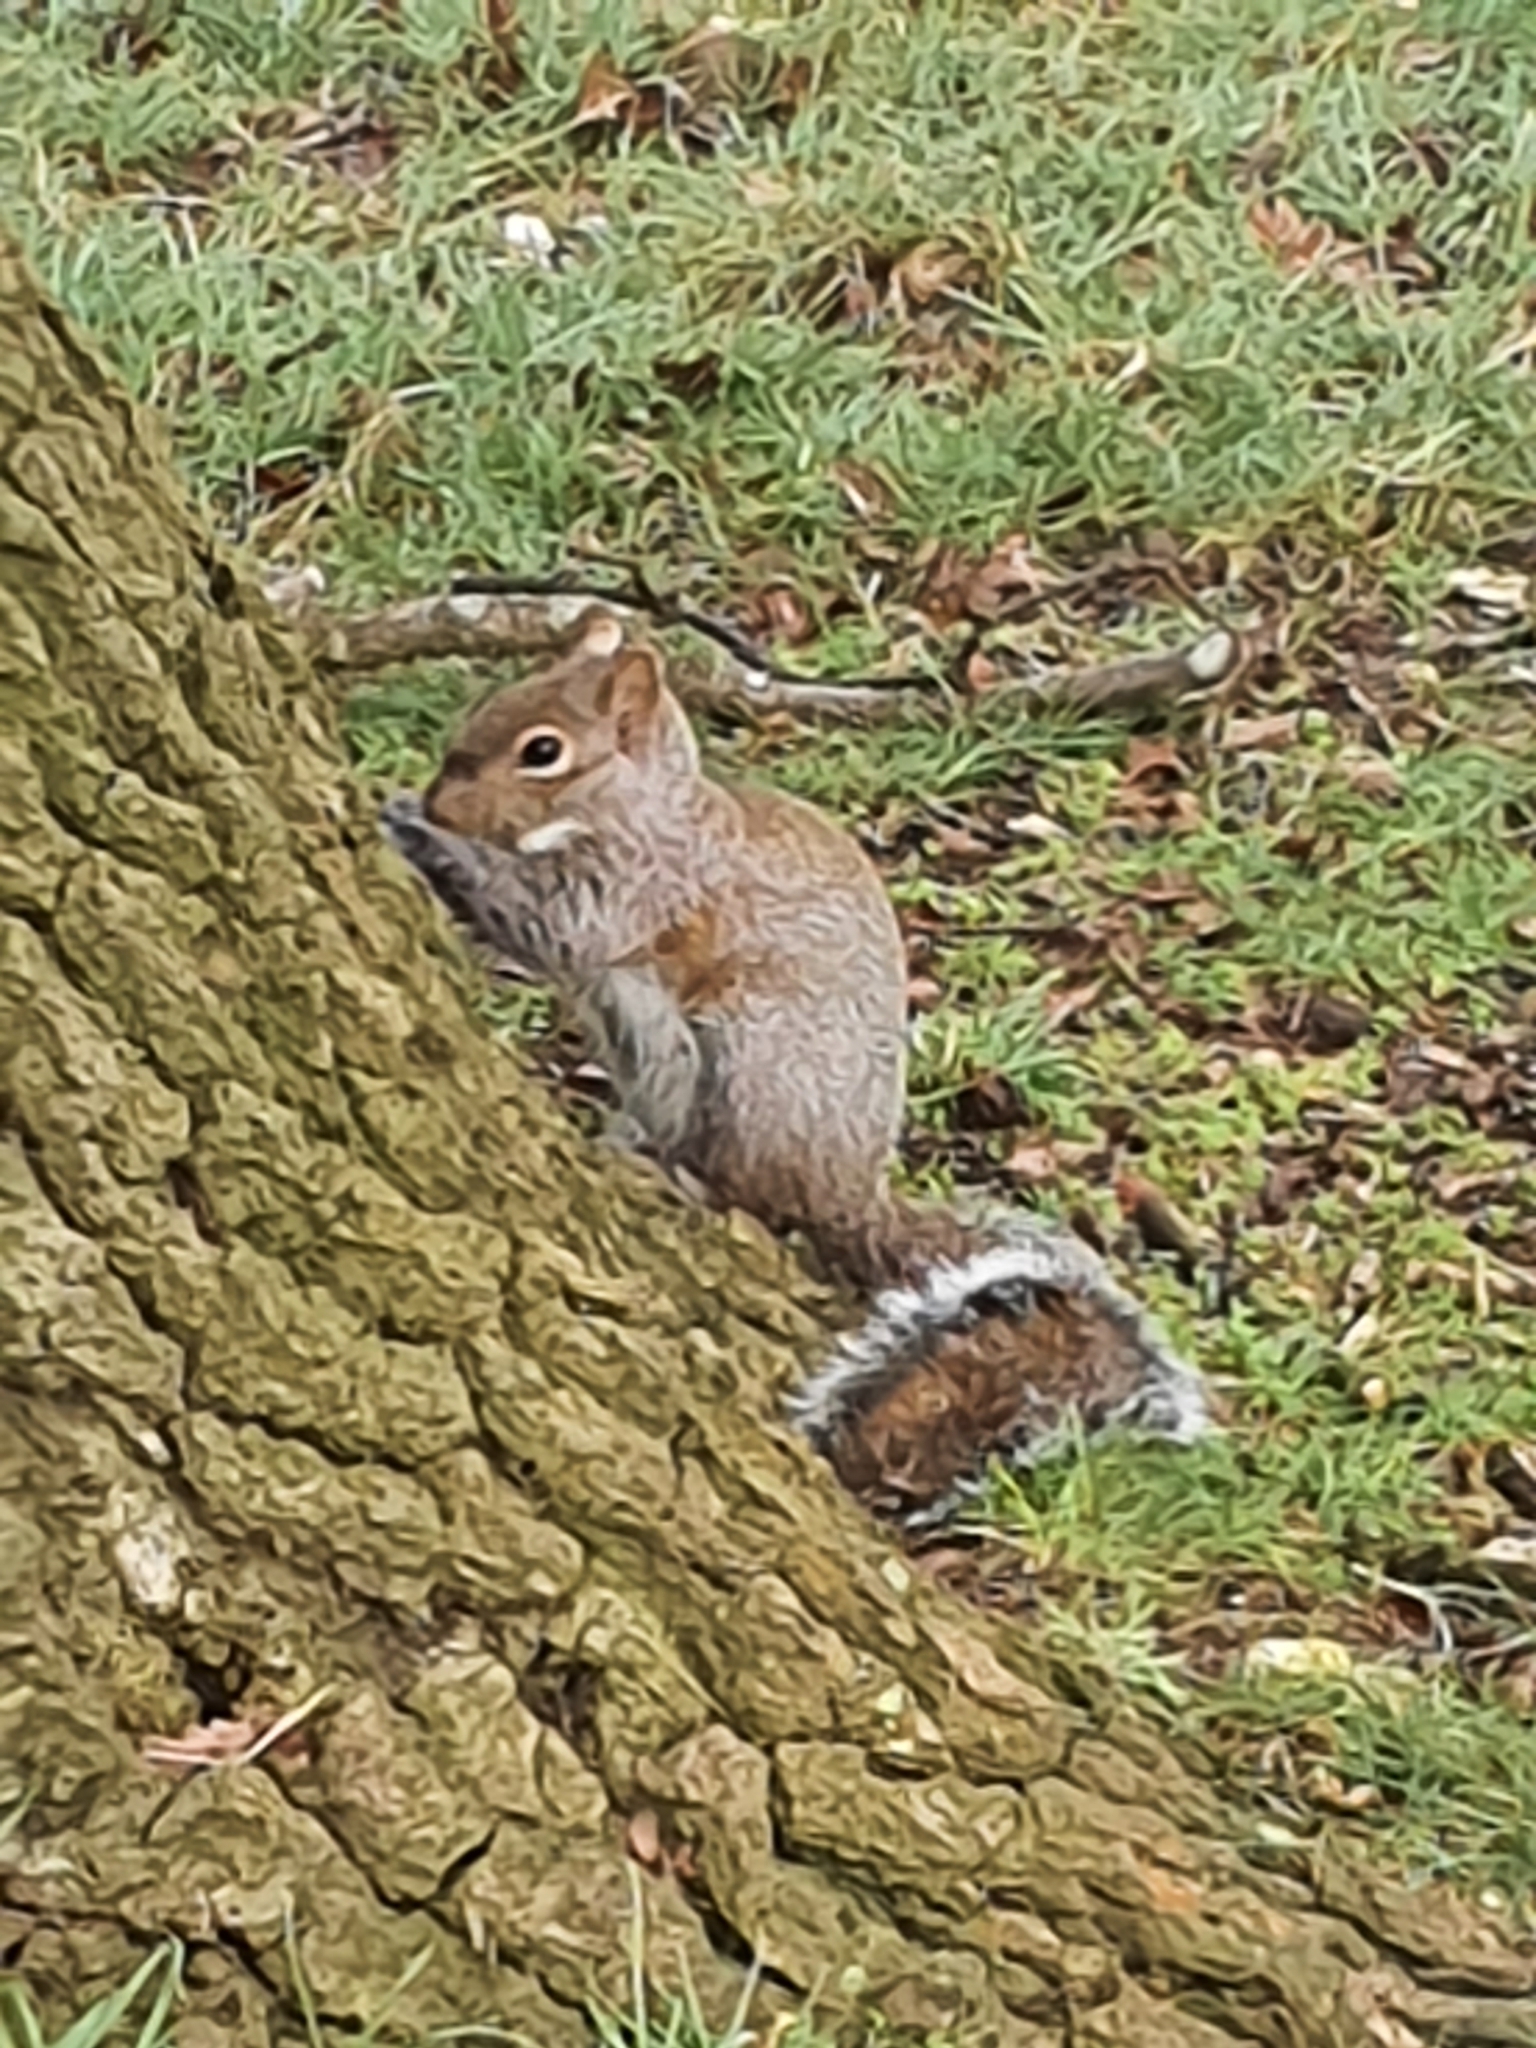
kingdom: Animalia
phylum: Chordata
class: Mammalia
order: Rodentia
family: Sciuridae
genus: Sciurus
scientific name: Sciurus carolinensis
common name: Eastern gray squirrel
